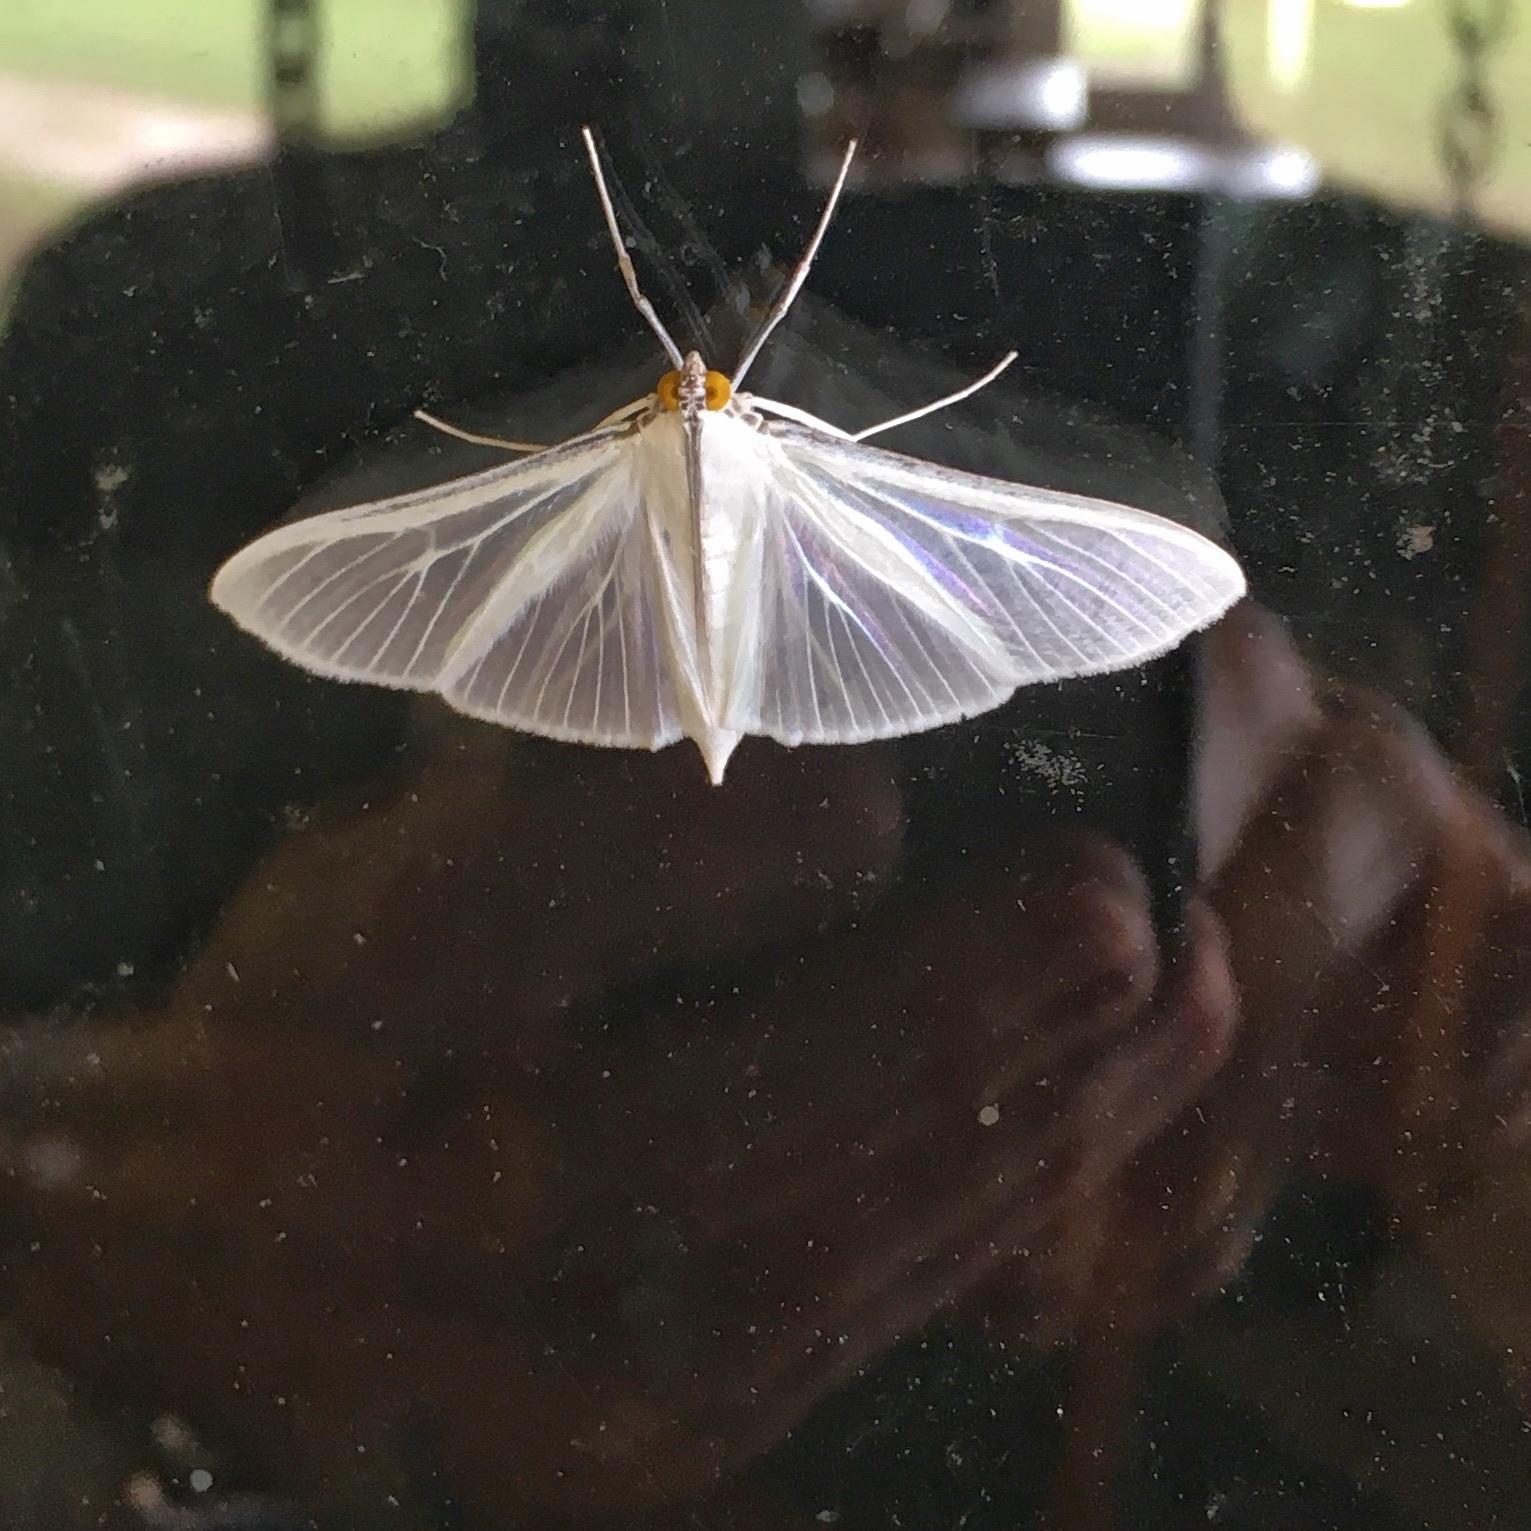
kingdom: Animalia
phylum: Arthropoda
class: Insecta
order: Lepidoptera
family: Crambidae
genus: Palpita
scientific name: Palpita flegia
